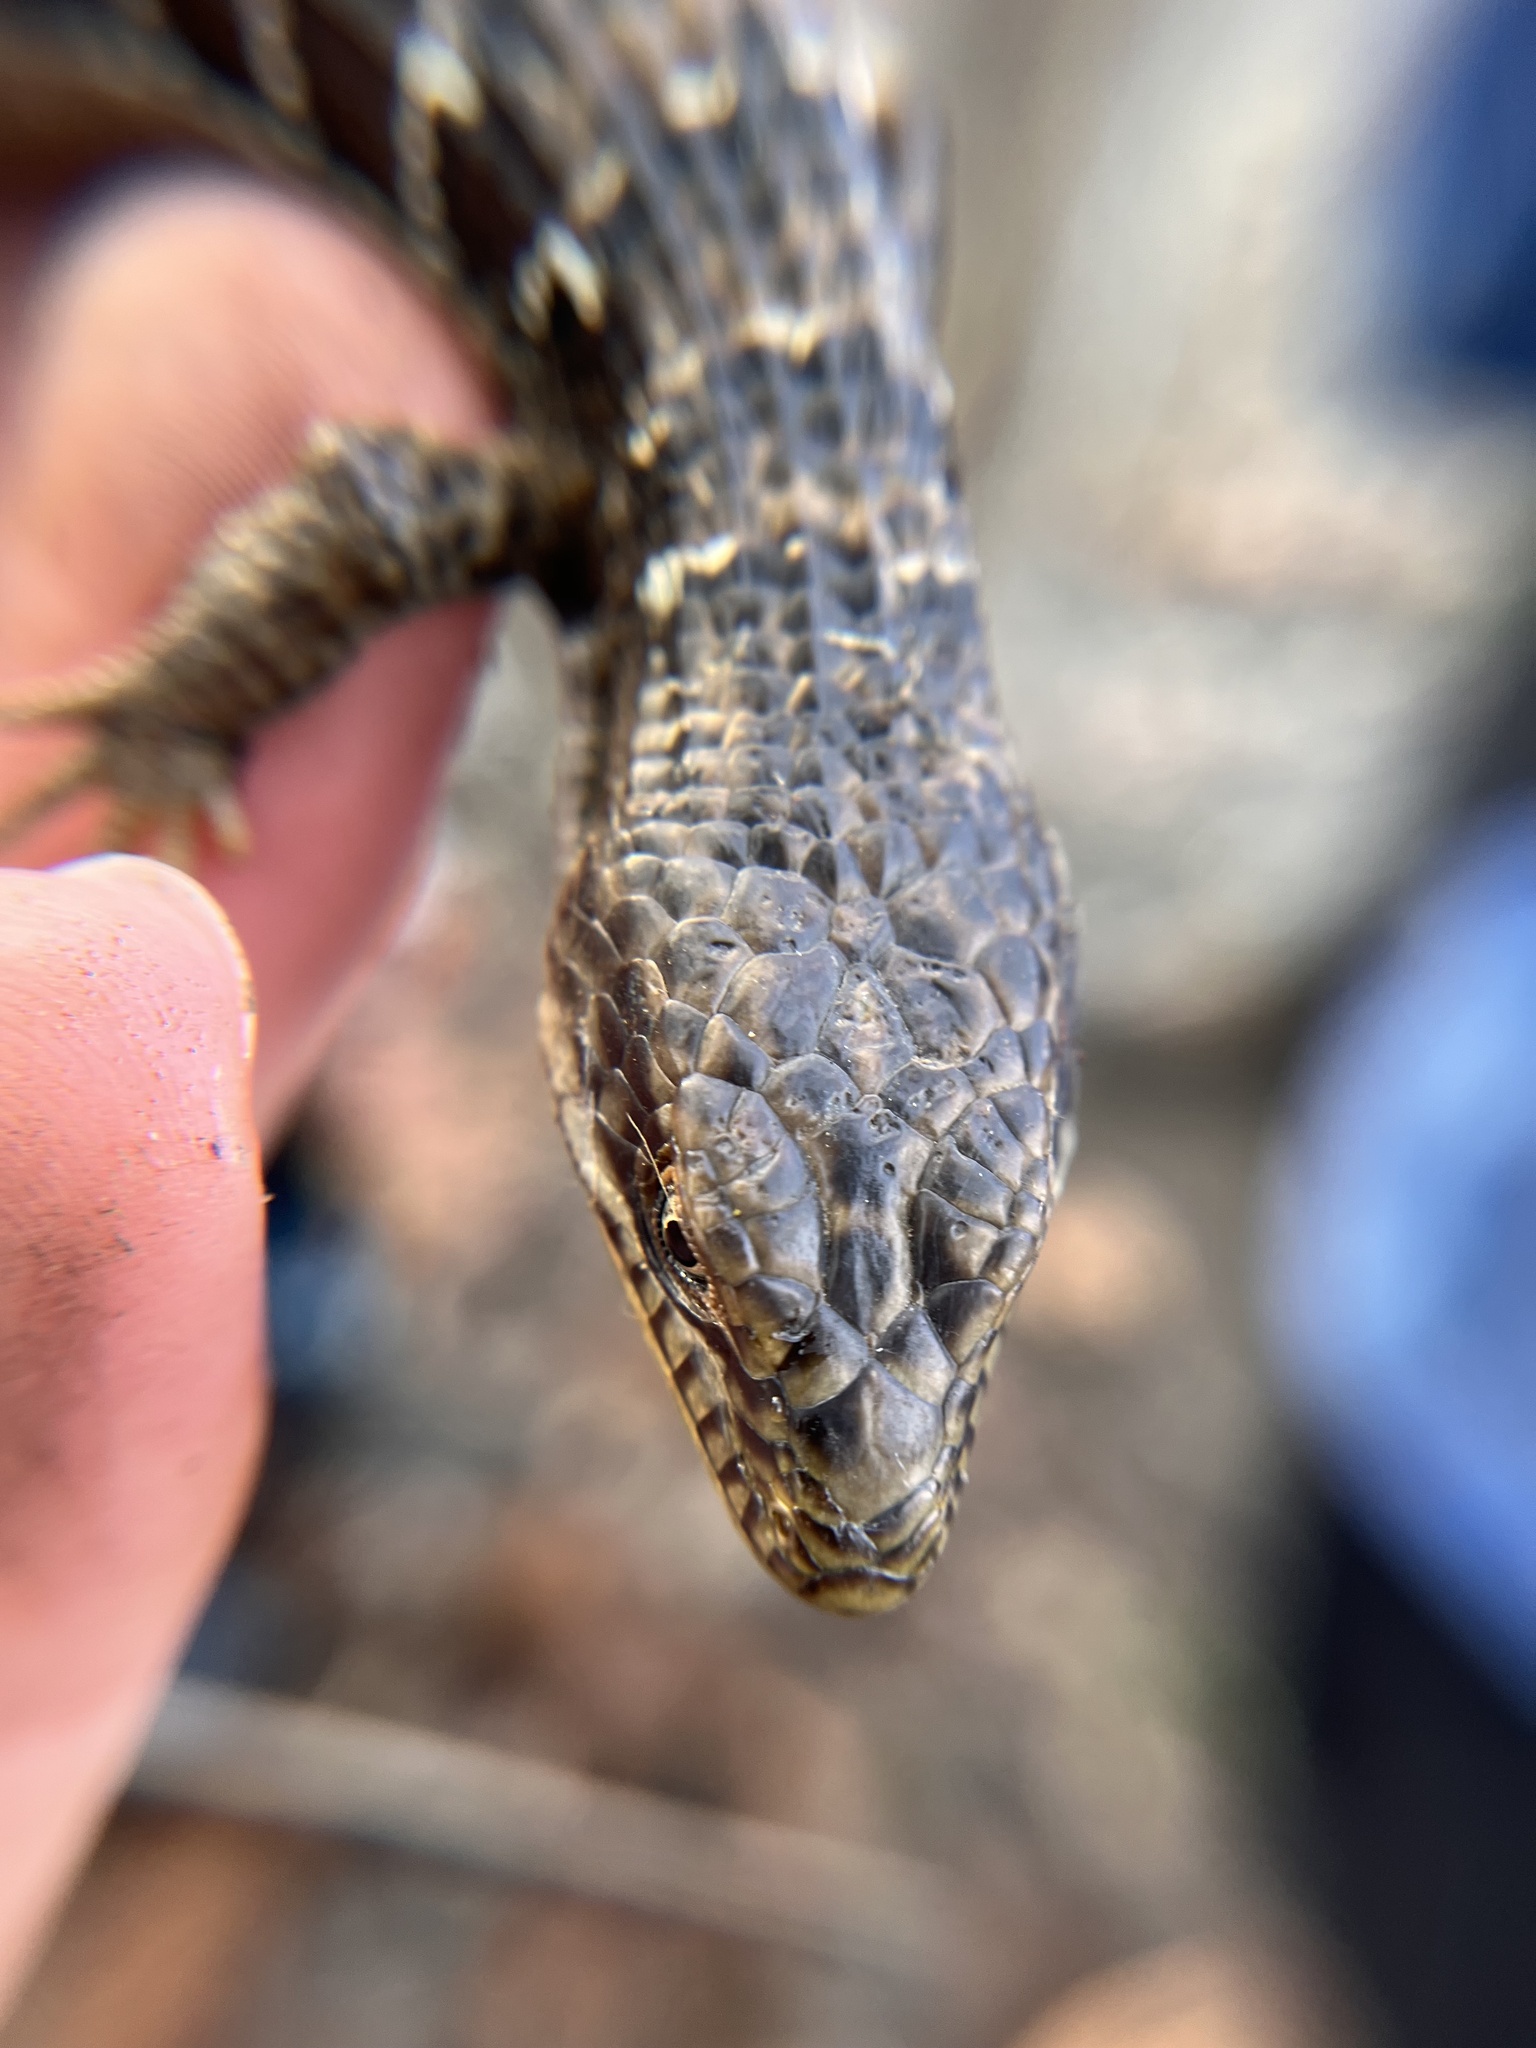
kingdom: Animalia
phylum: Chordata
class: Squamata
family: Anguidae
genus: Elgaria
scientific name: Elgaria multicarinata
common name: Southern alligator lizard
